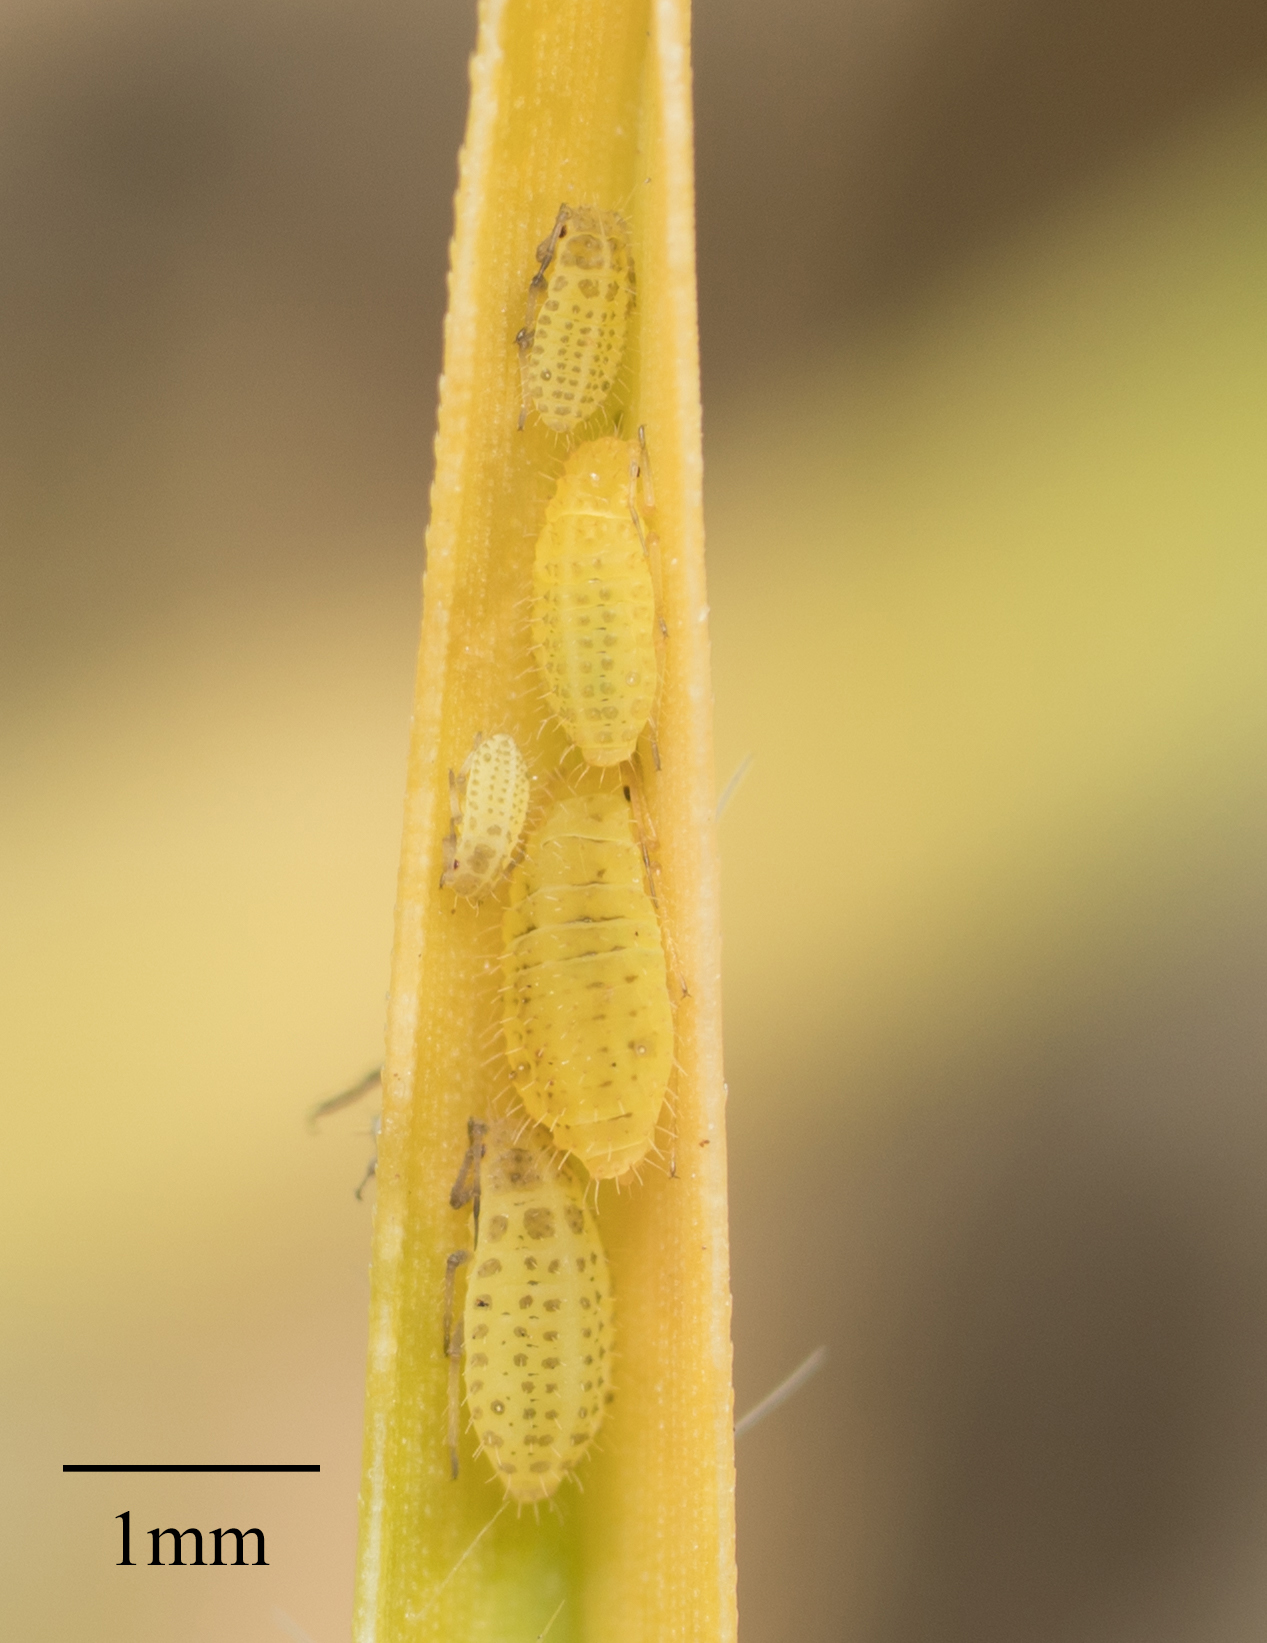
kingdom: Animalia
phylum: Arthropoda
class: Insecta
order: Hemiptera
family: Aphididae
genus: Sipha
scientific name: Sipha flava
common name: Yellow sugarcane aphid
